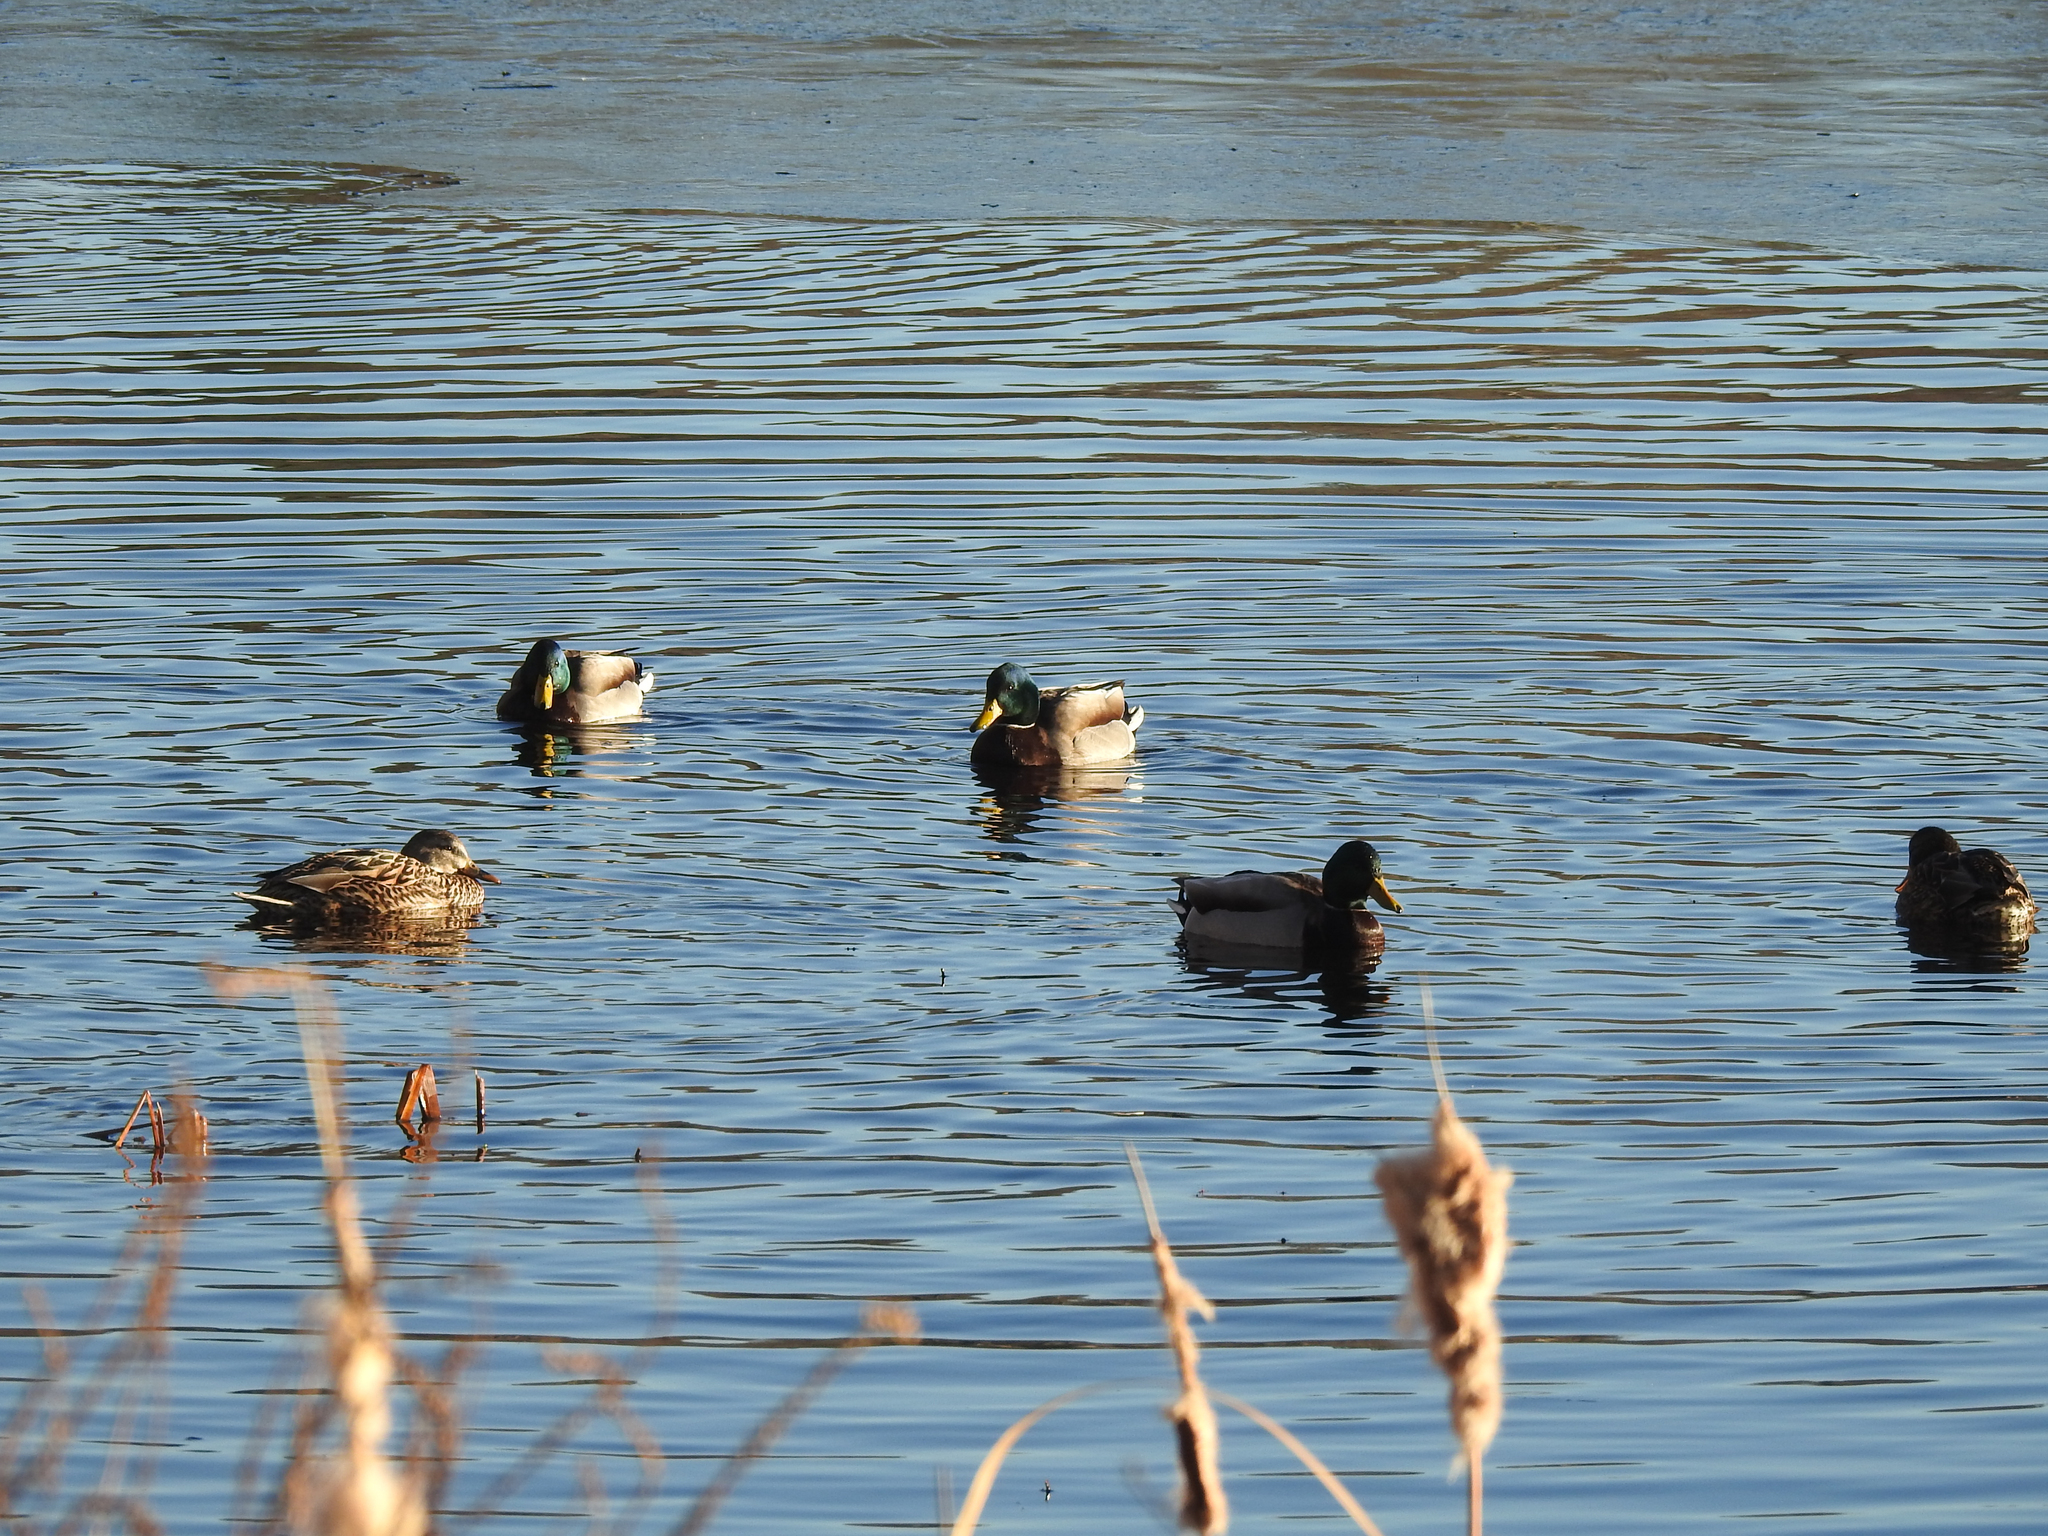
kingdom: Animalia
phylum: Chordata
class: Aves
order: Anseriformes
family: Anatidae
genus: Anas
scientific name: Anas platyrhynchos
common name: Mallard
